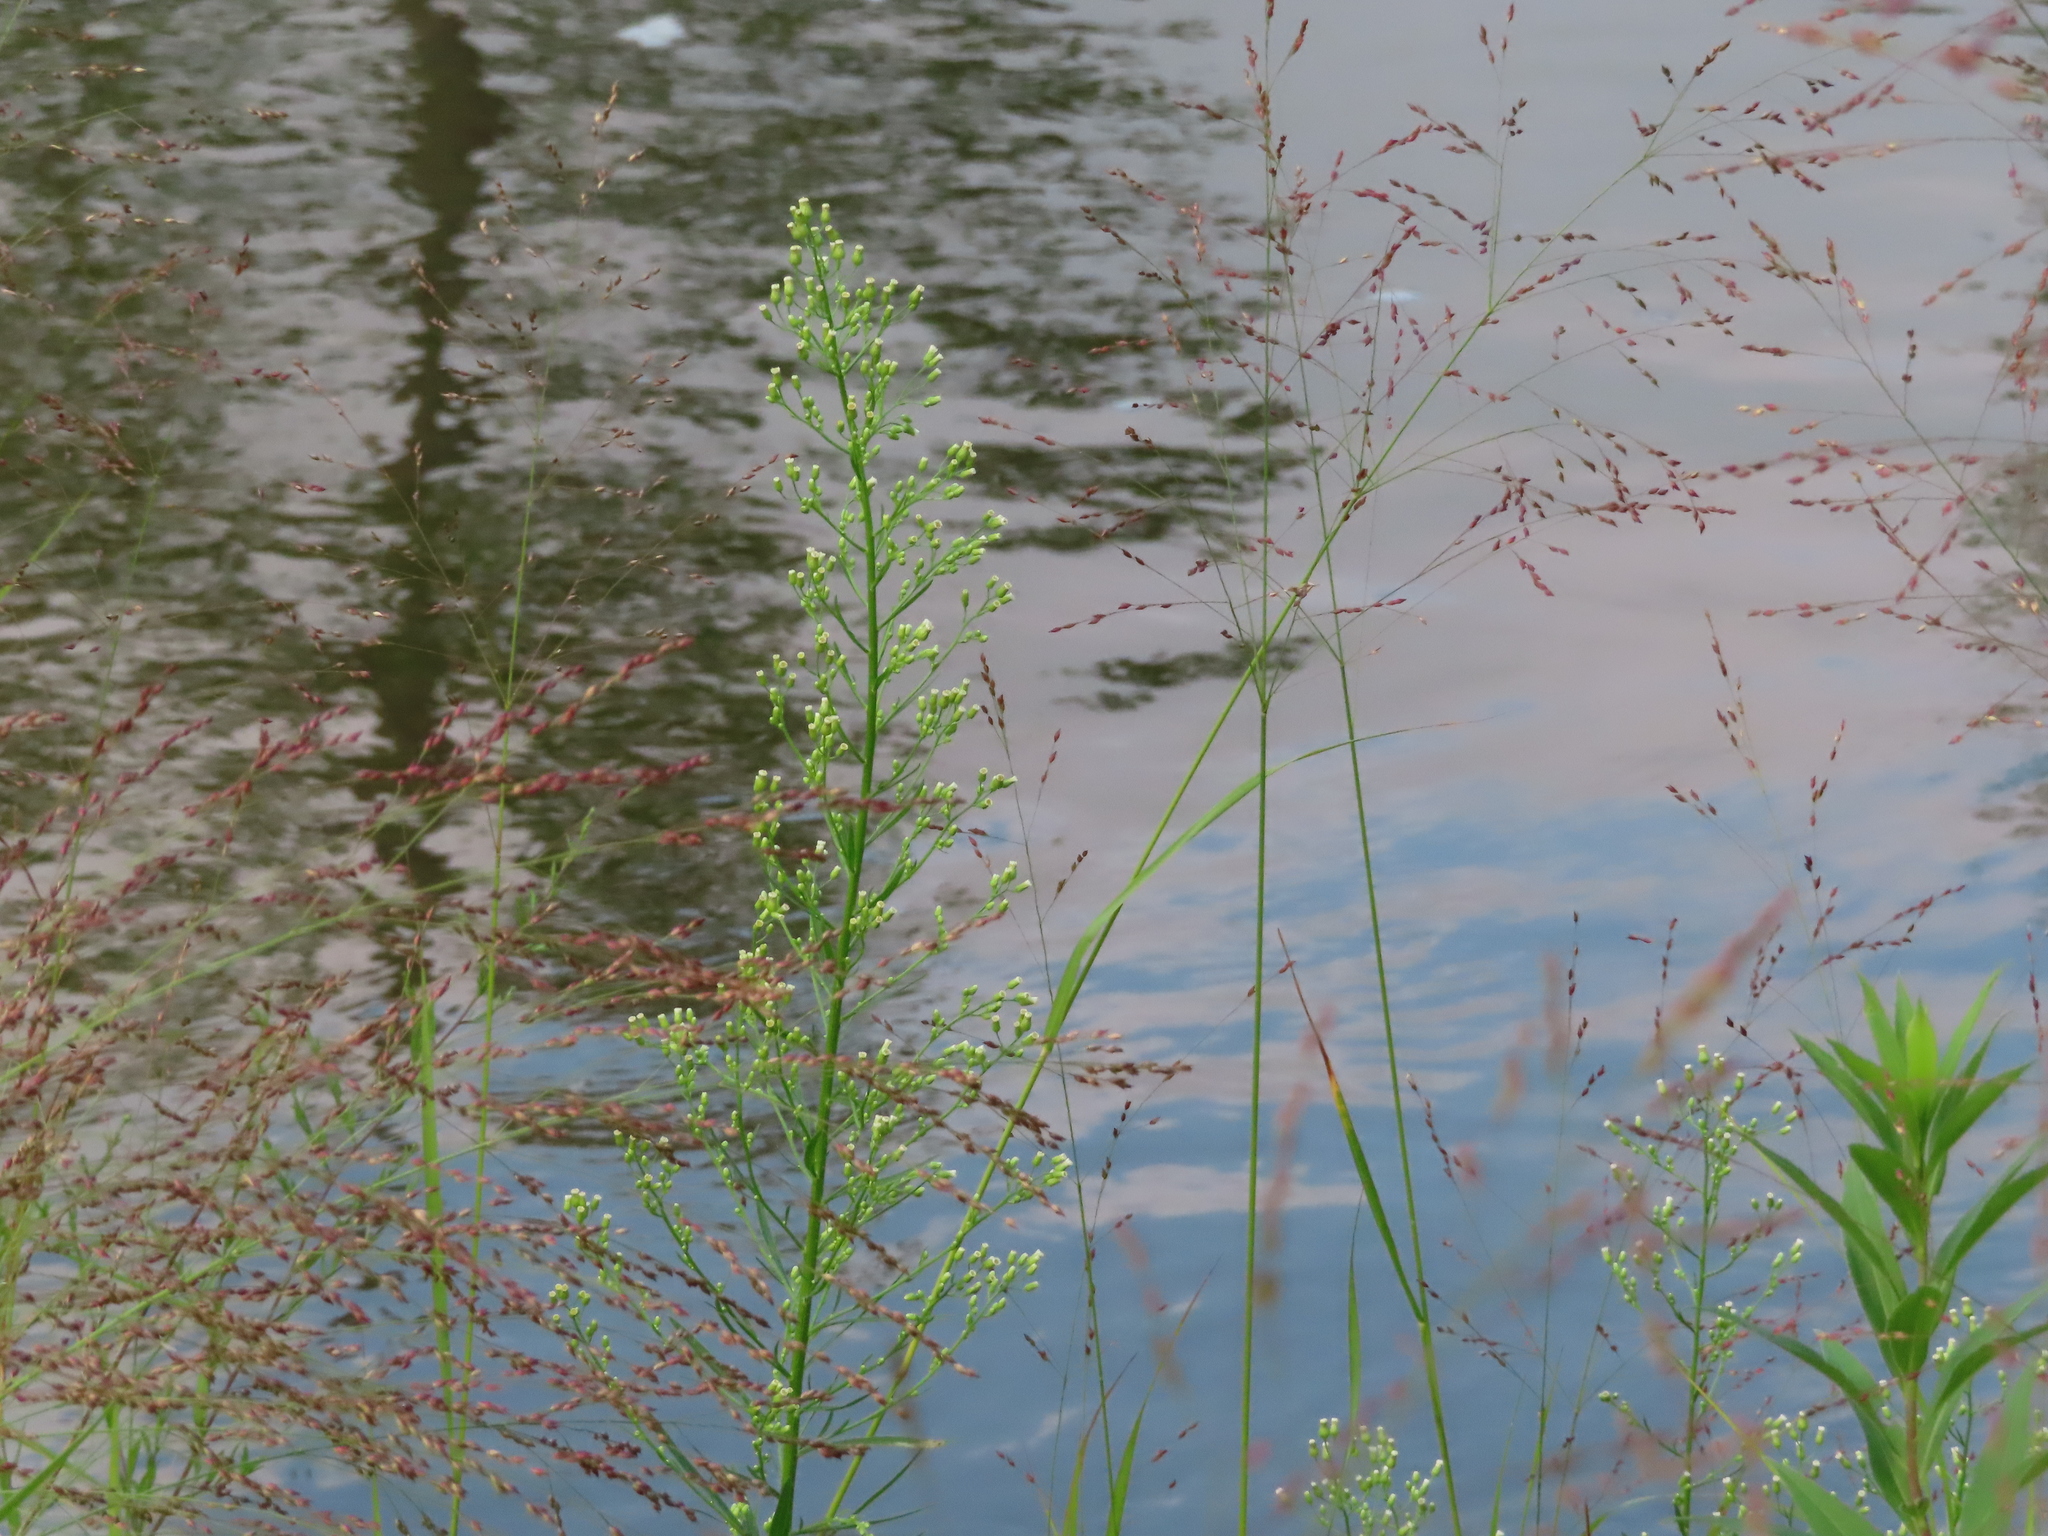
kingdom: Plantae
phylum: Tracheophyta
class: Magnoliopsida
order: Asterales
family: Asteraceae
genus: Erigeron
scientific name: Erigeron canadensis
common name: Canadian fleabane
